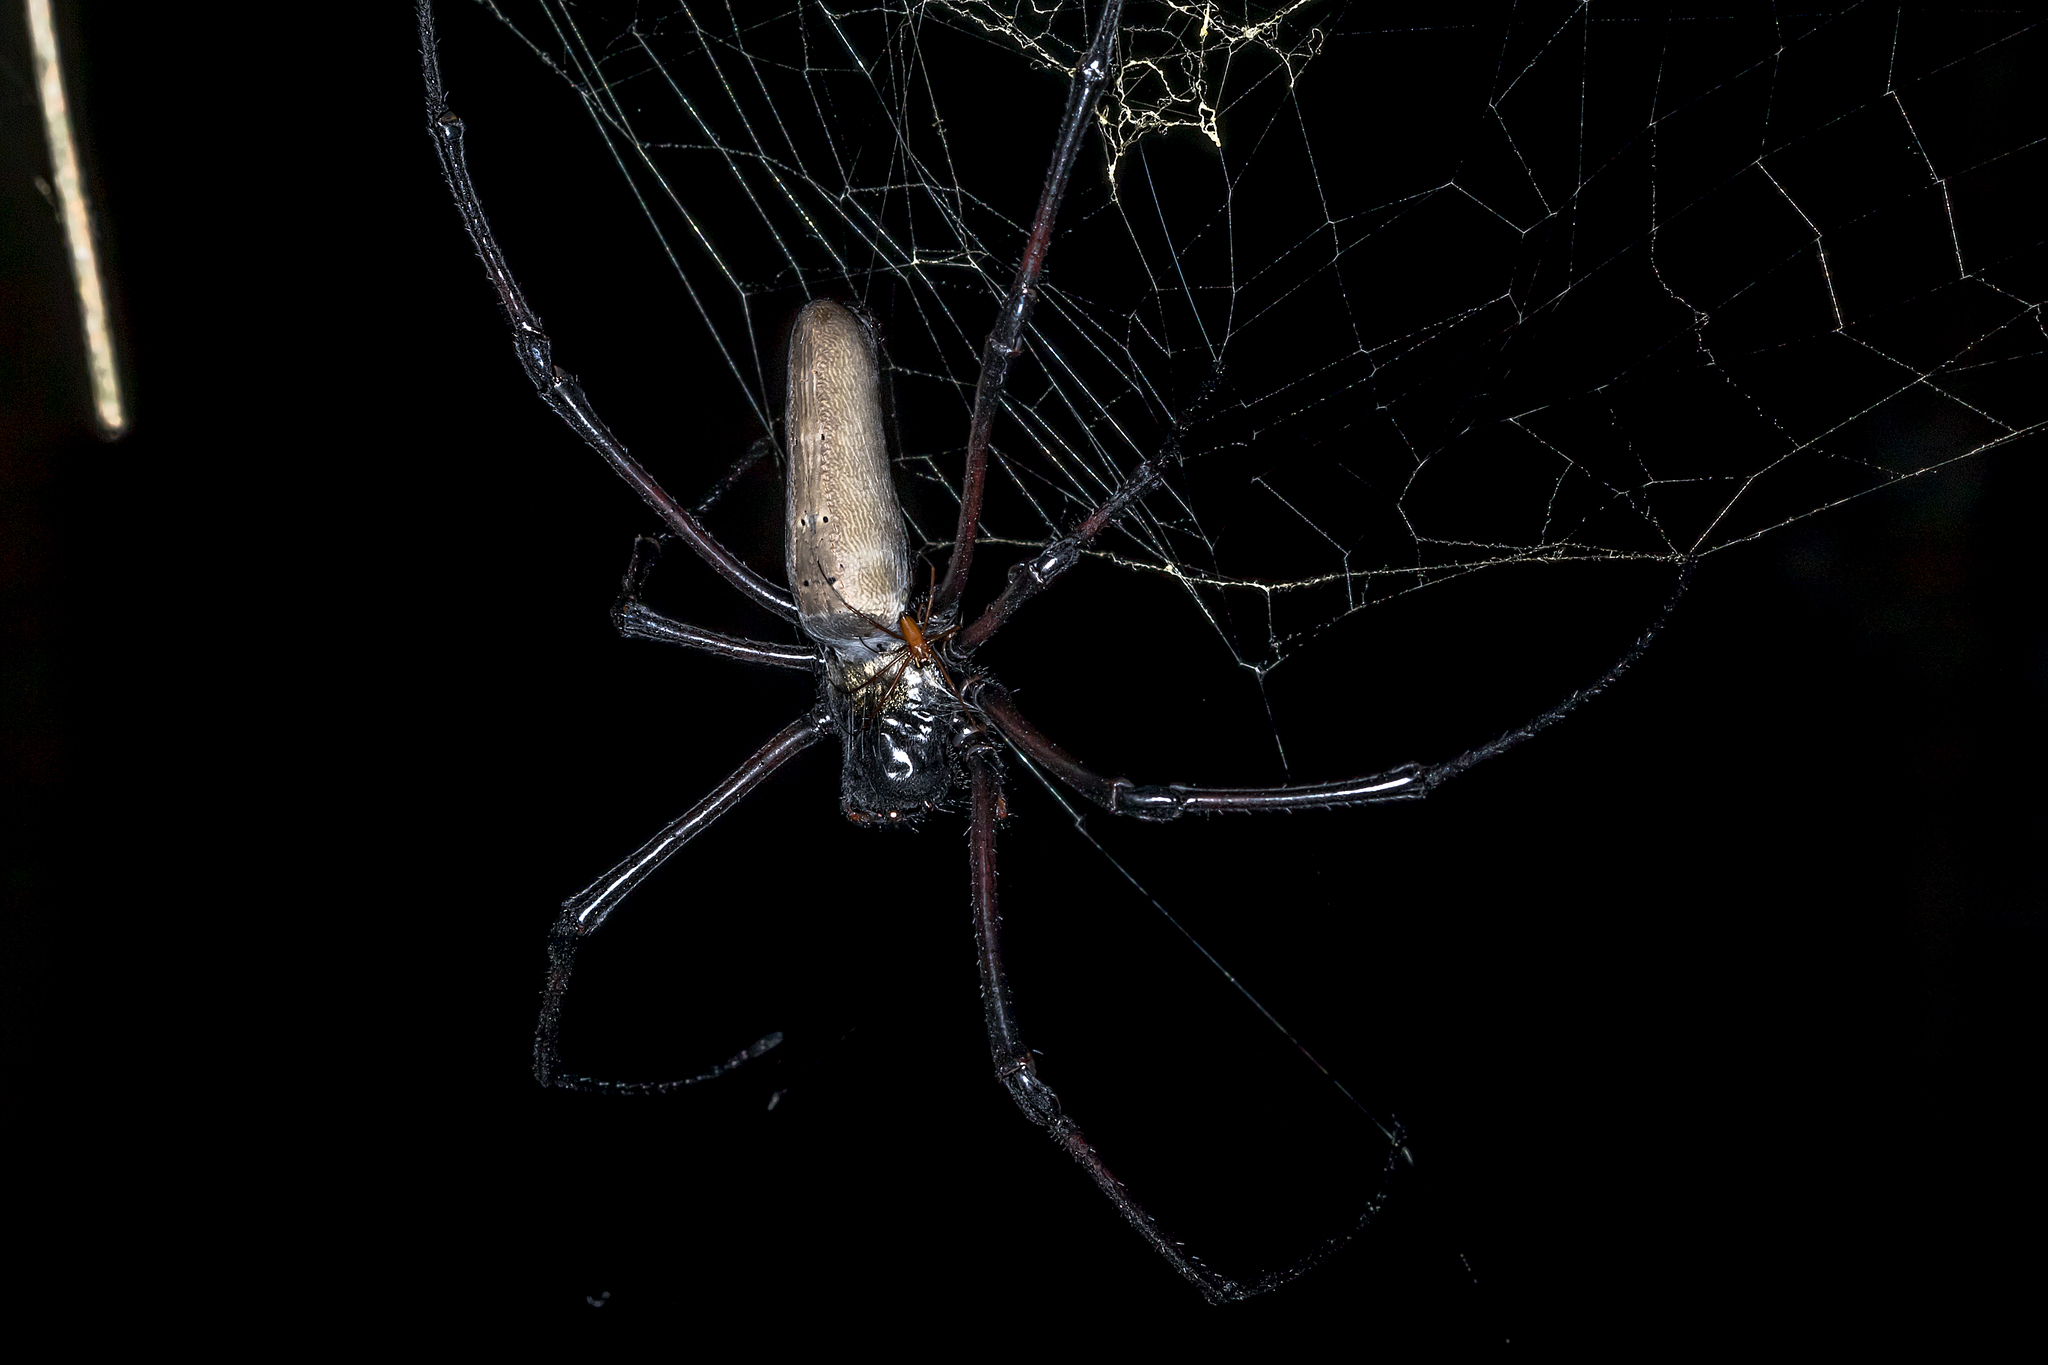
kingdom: Animalia
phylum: Arthropoda
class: Arachnida
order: Araneae
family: Araneidae
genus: Nephila
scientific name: Nephila pilipes
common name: Giant golden orb weaver
